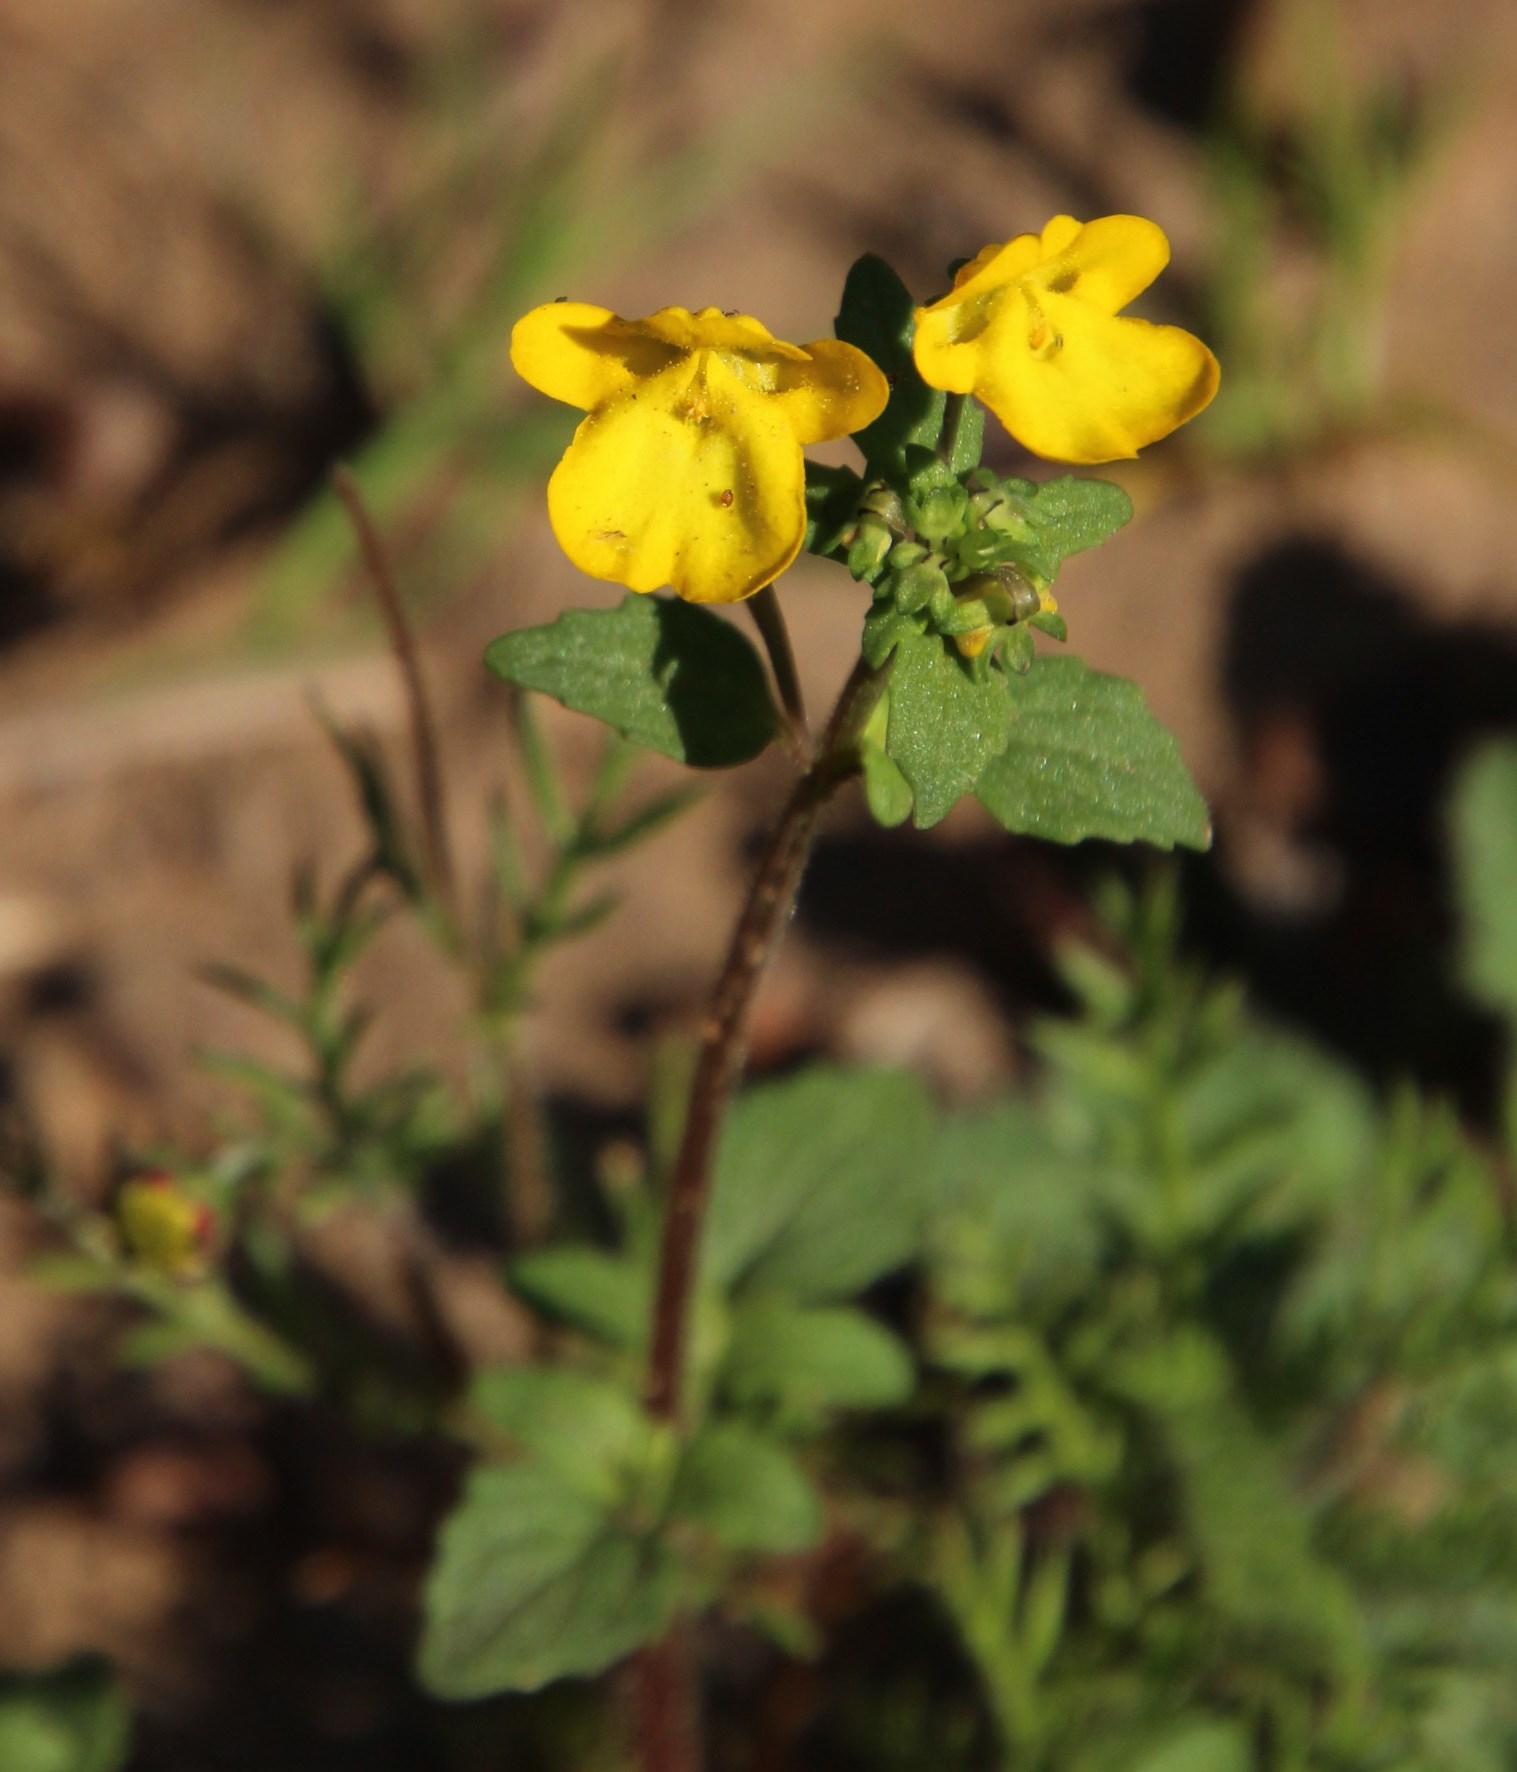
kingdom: Plantae
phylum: Tracheophyta
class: Magnoliopsida
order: Lamiales
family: Scrophulariaceae
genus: Hemimeris
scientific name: Hemimeris racemosa
